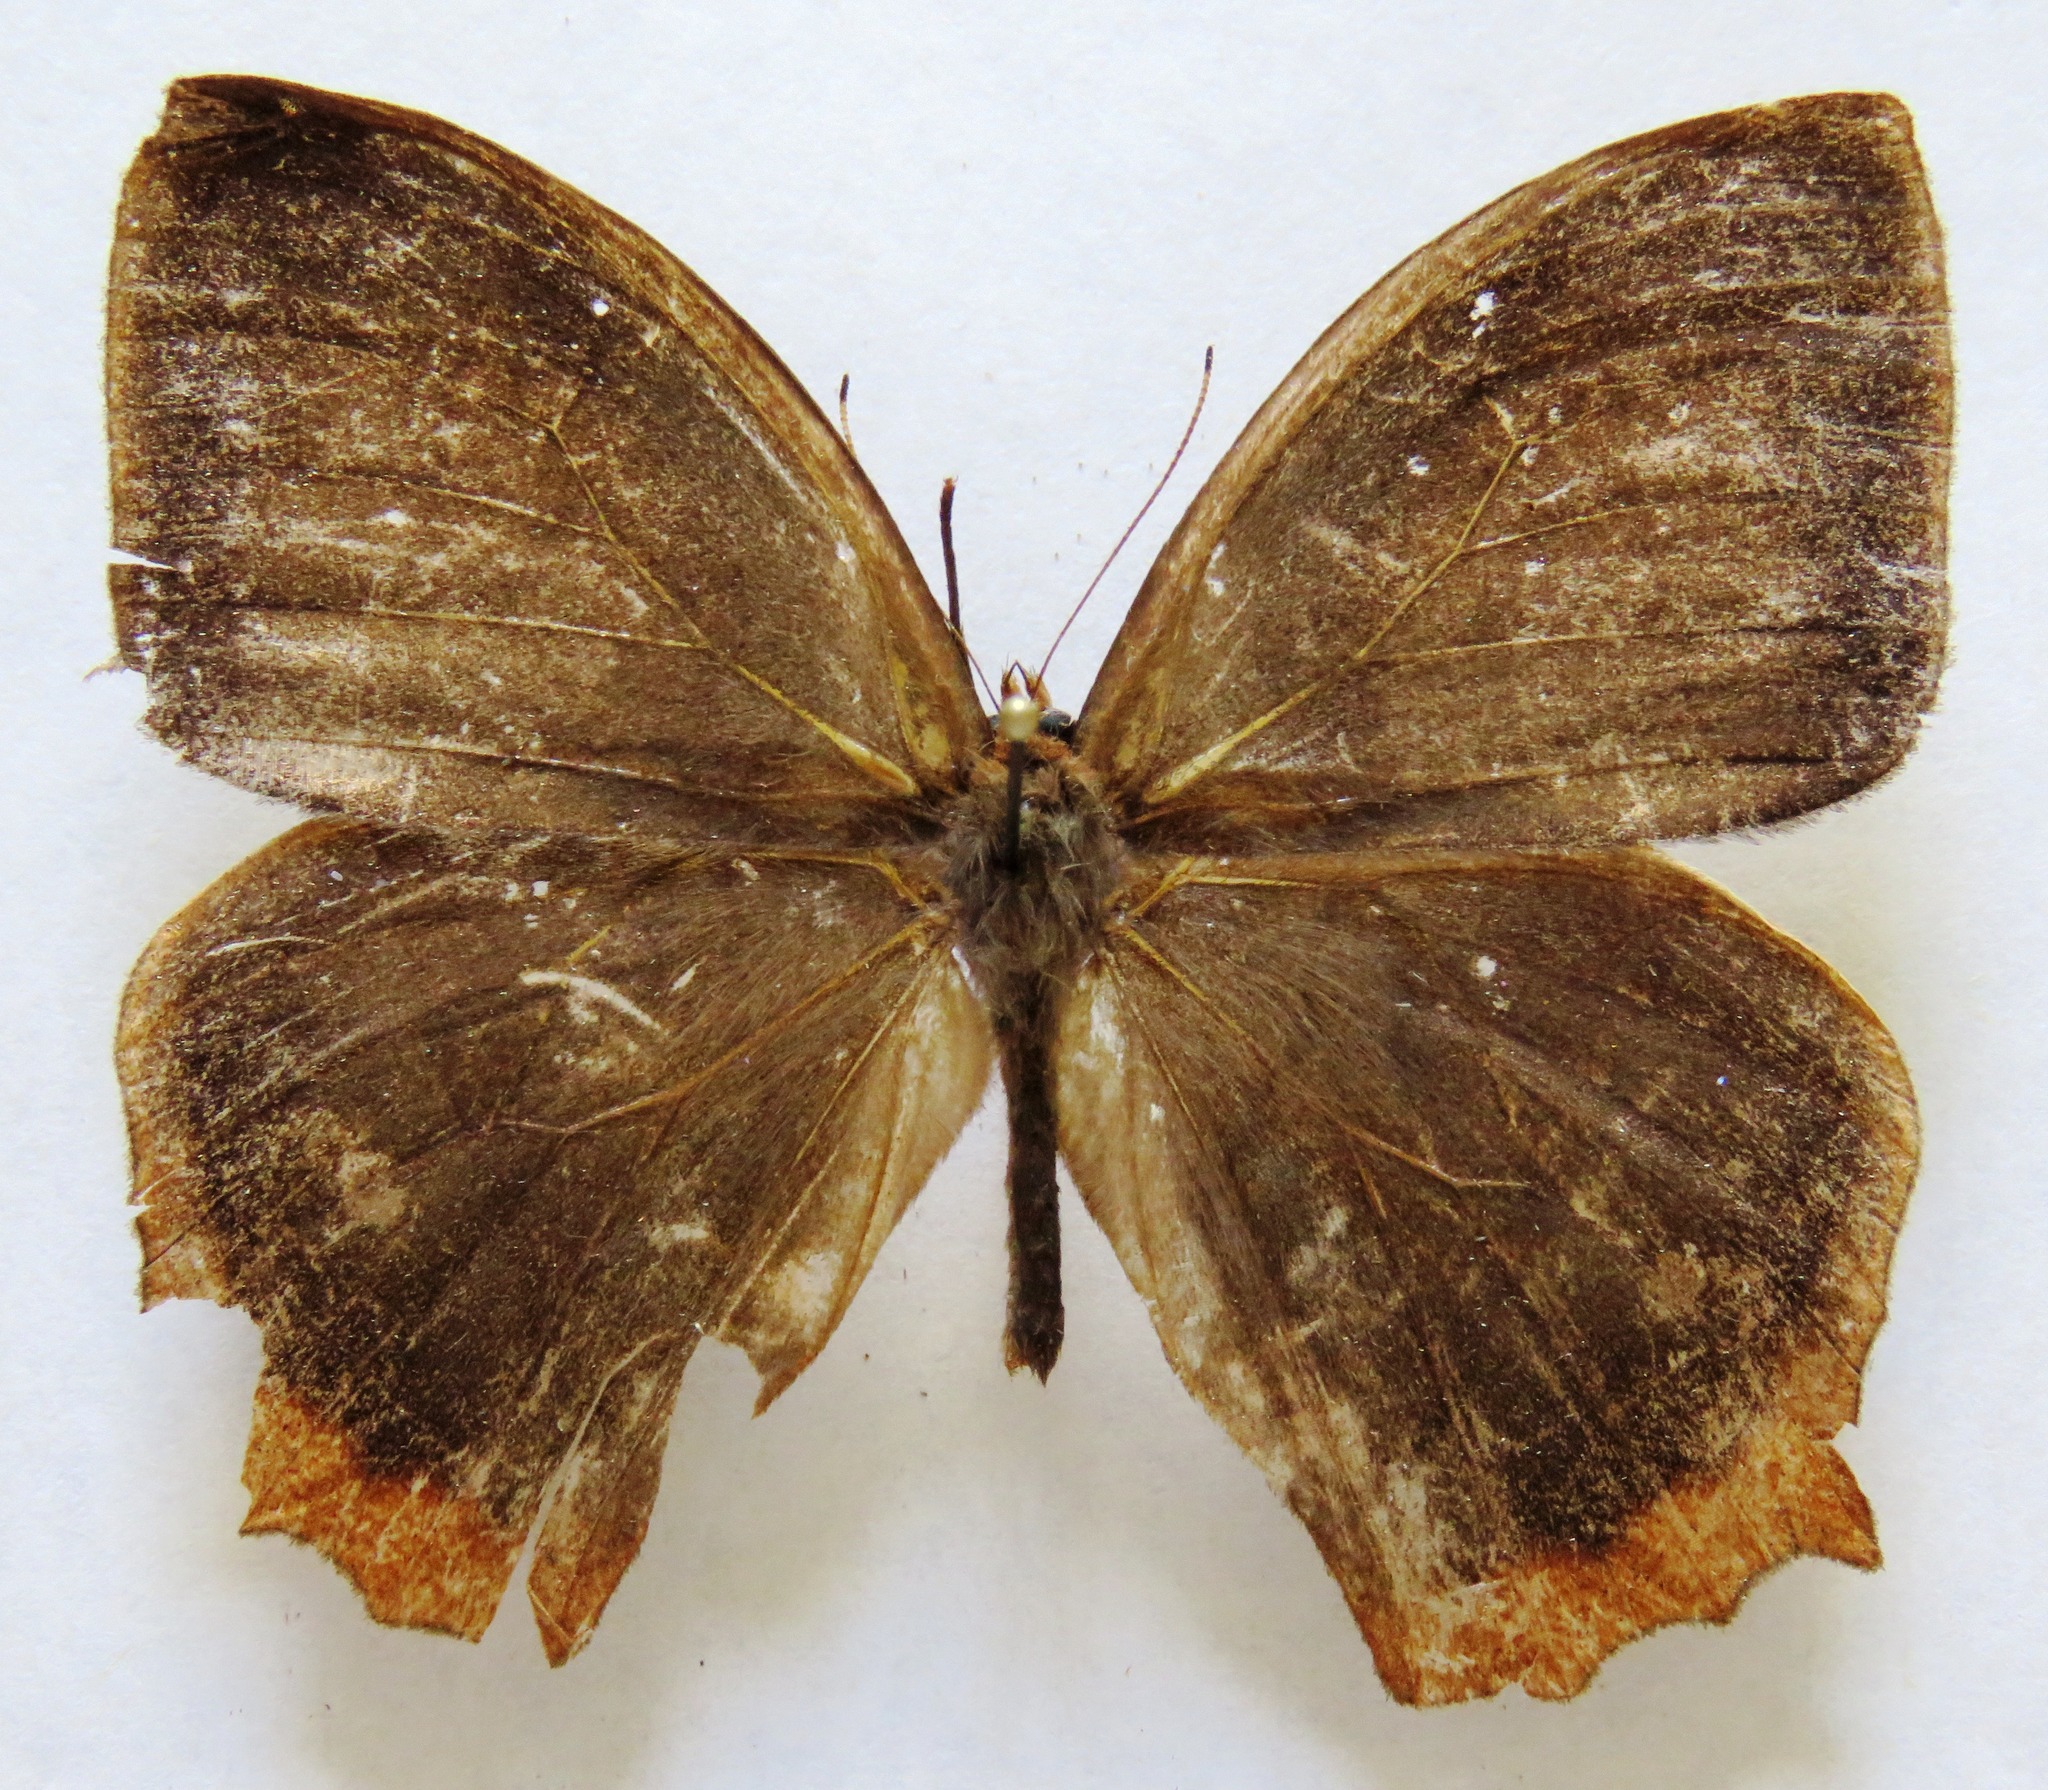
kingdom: Animalia
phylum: Arthropoda
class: Insecta
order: Lepidoptera
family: Nymphalidae
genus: Taygetis
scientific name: Taygetis virgilia
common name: Stub-tailed satyr
